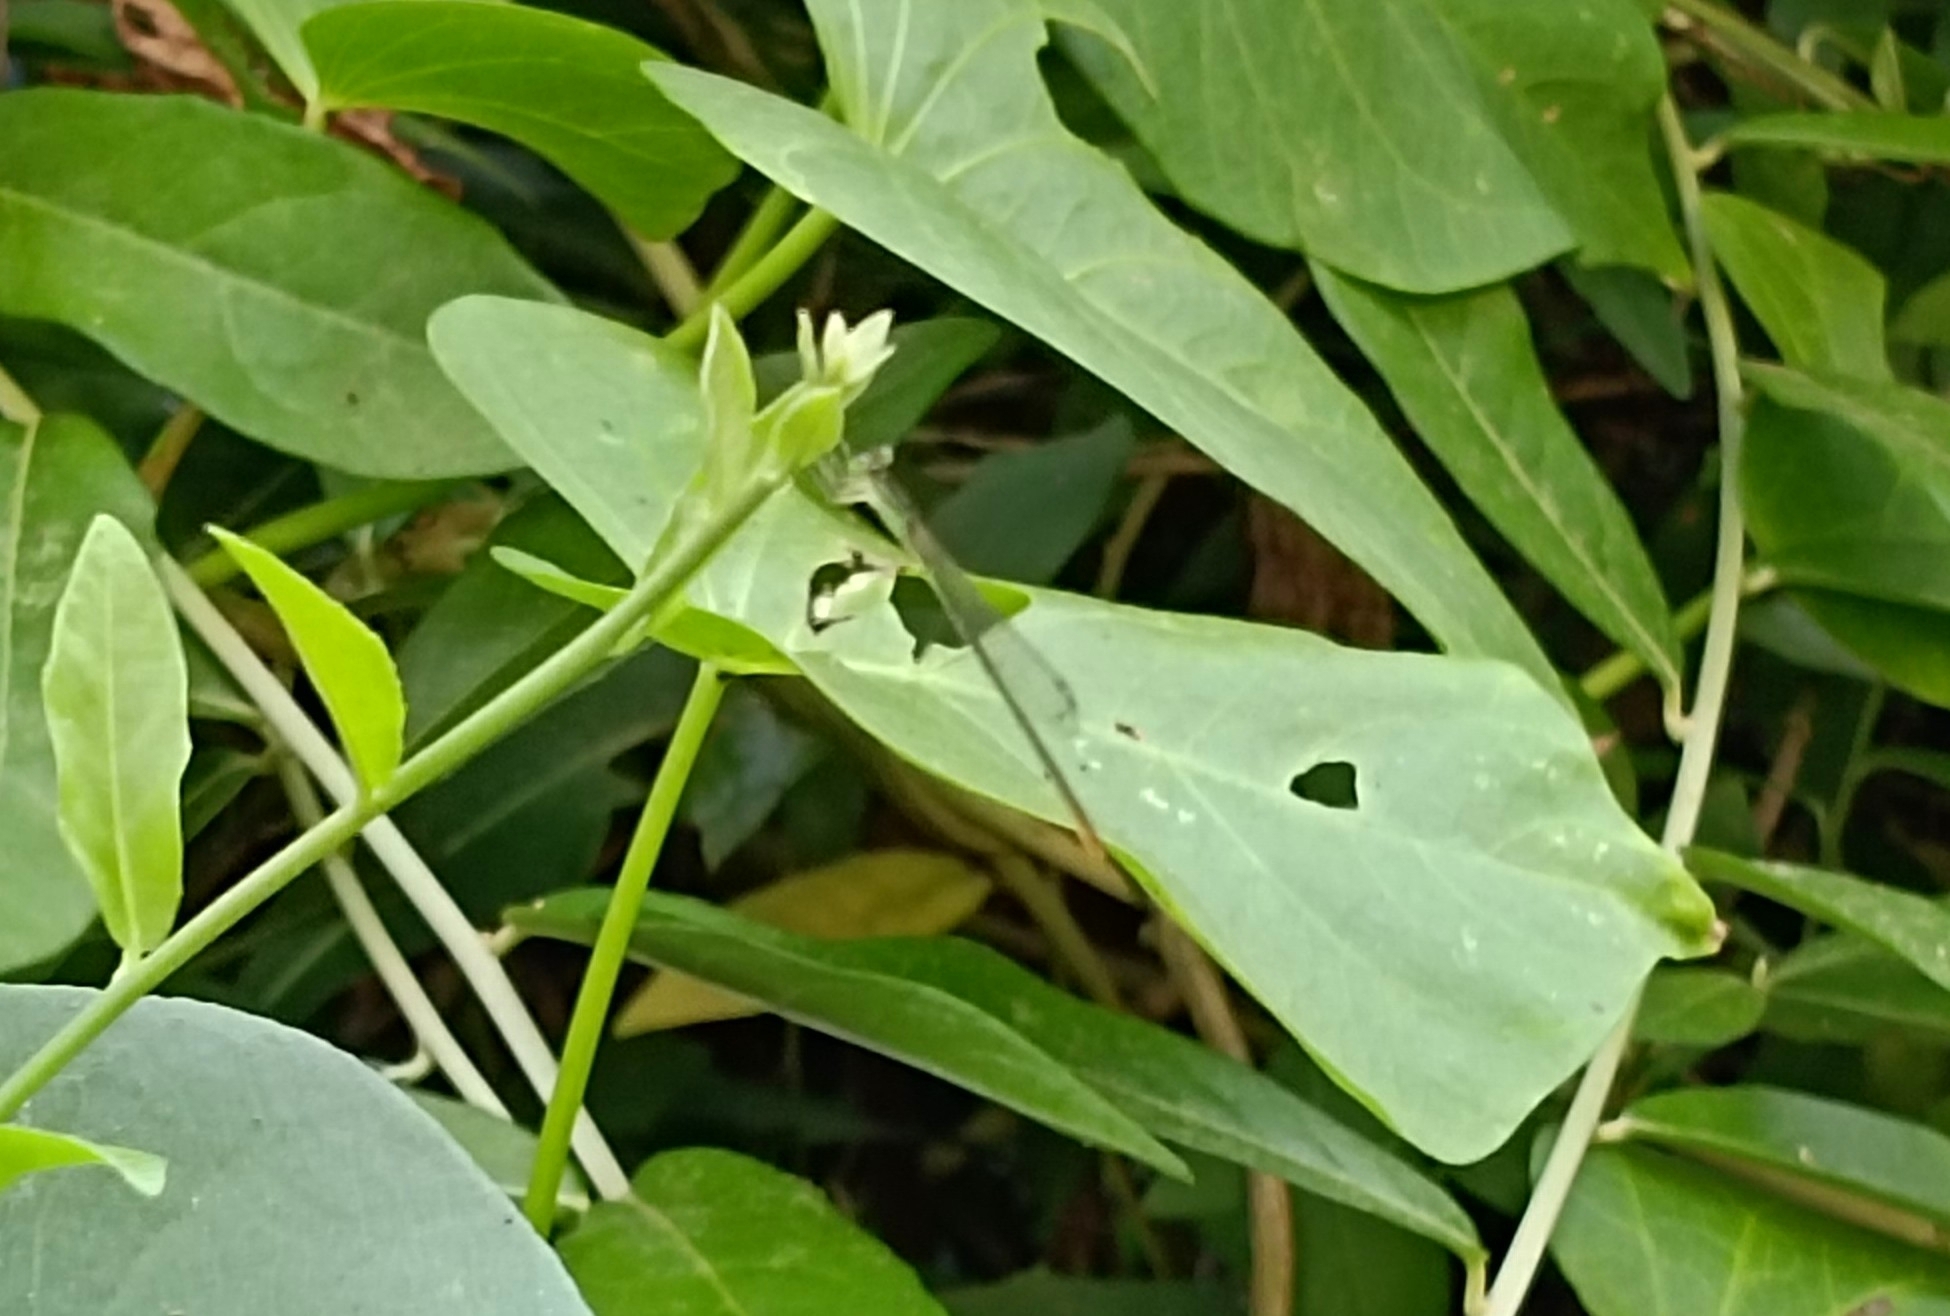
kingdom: Animalia
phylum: Arthropoda
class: Insecta
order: Odonata
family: Coenagrionidae
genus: Agriocnemis
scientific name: Agriocnemis pygmaea
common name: Pygmy wisp
